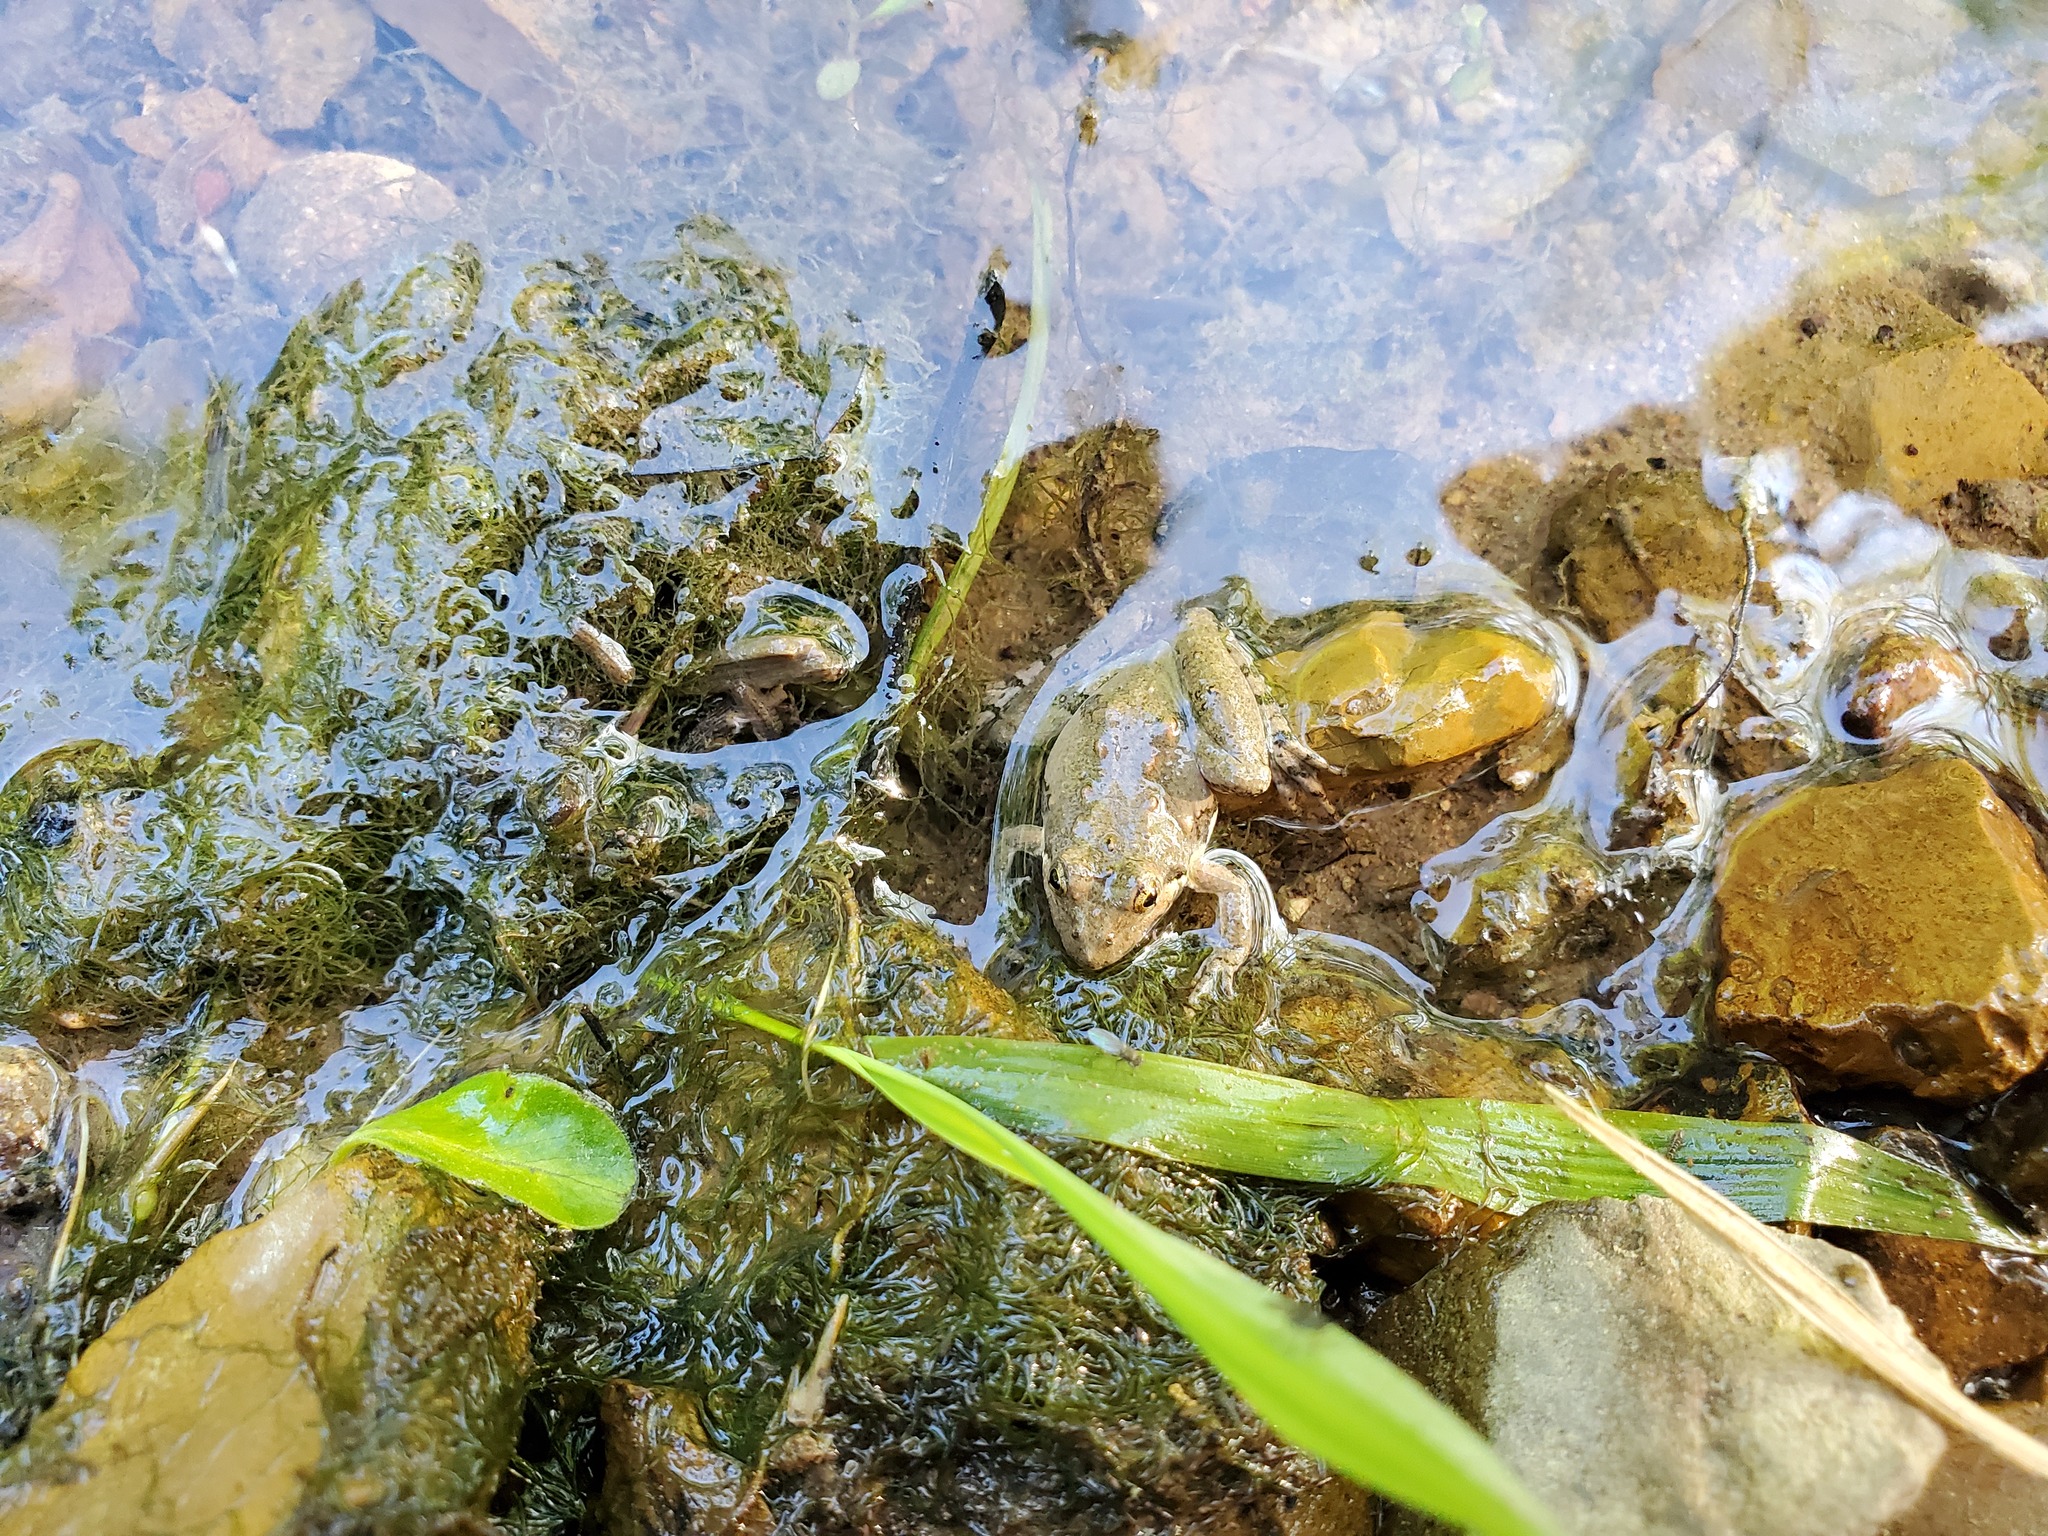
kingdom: Animalia
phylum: Chordata
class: Amphibia
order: Anura
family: Hylidae
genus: Acris
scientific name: Acris crepitans
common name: Northern cricket frog
